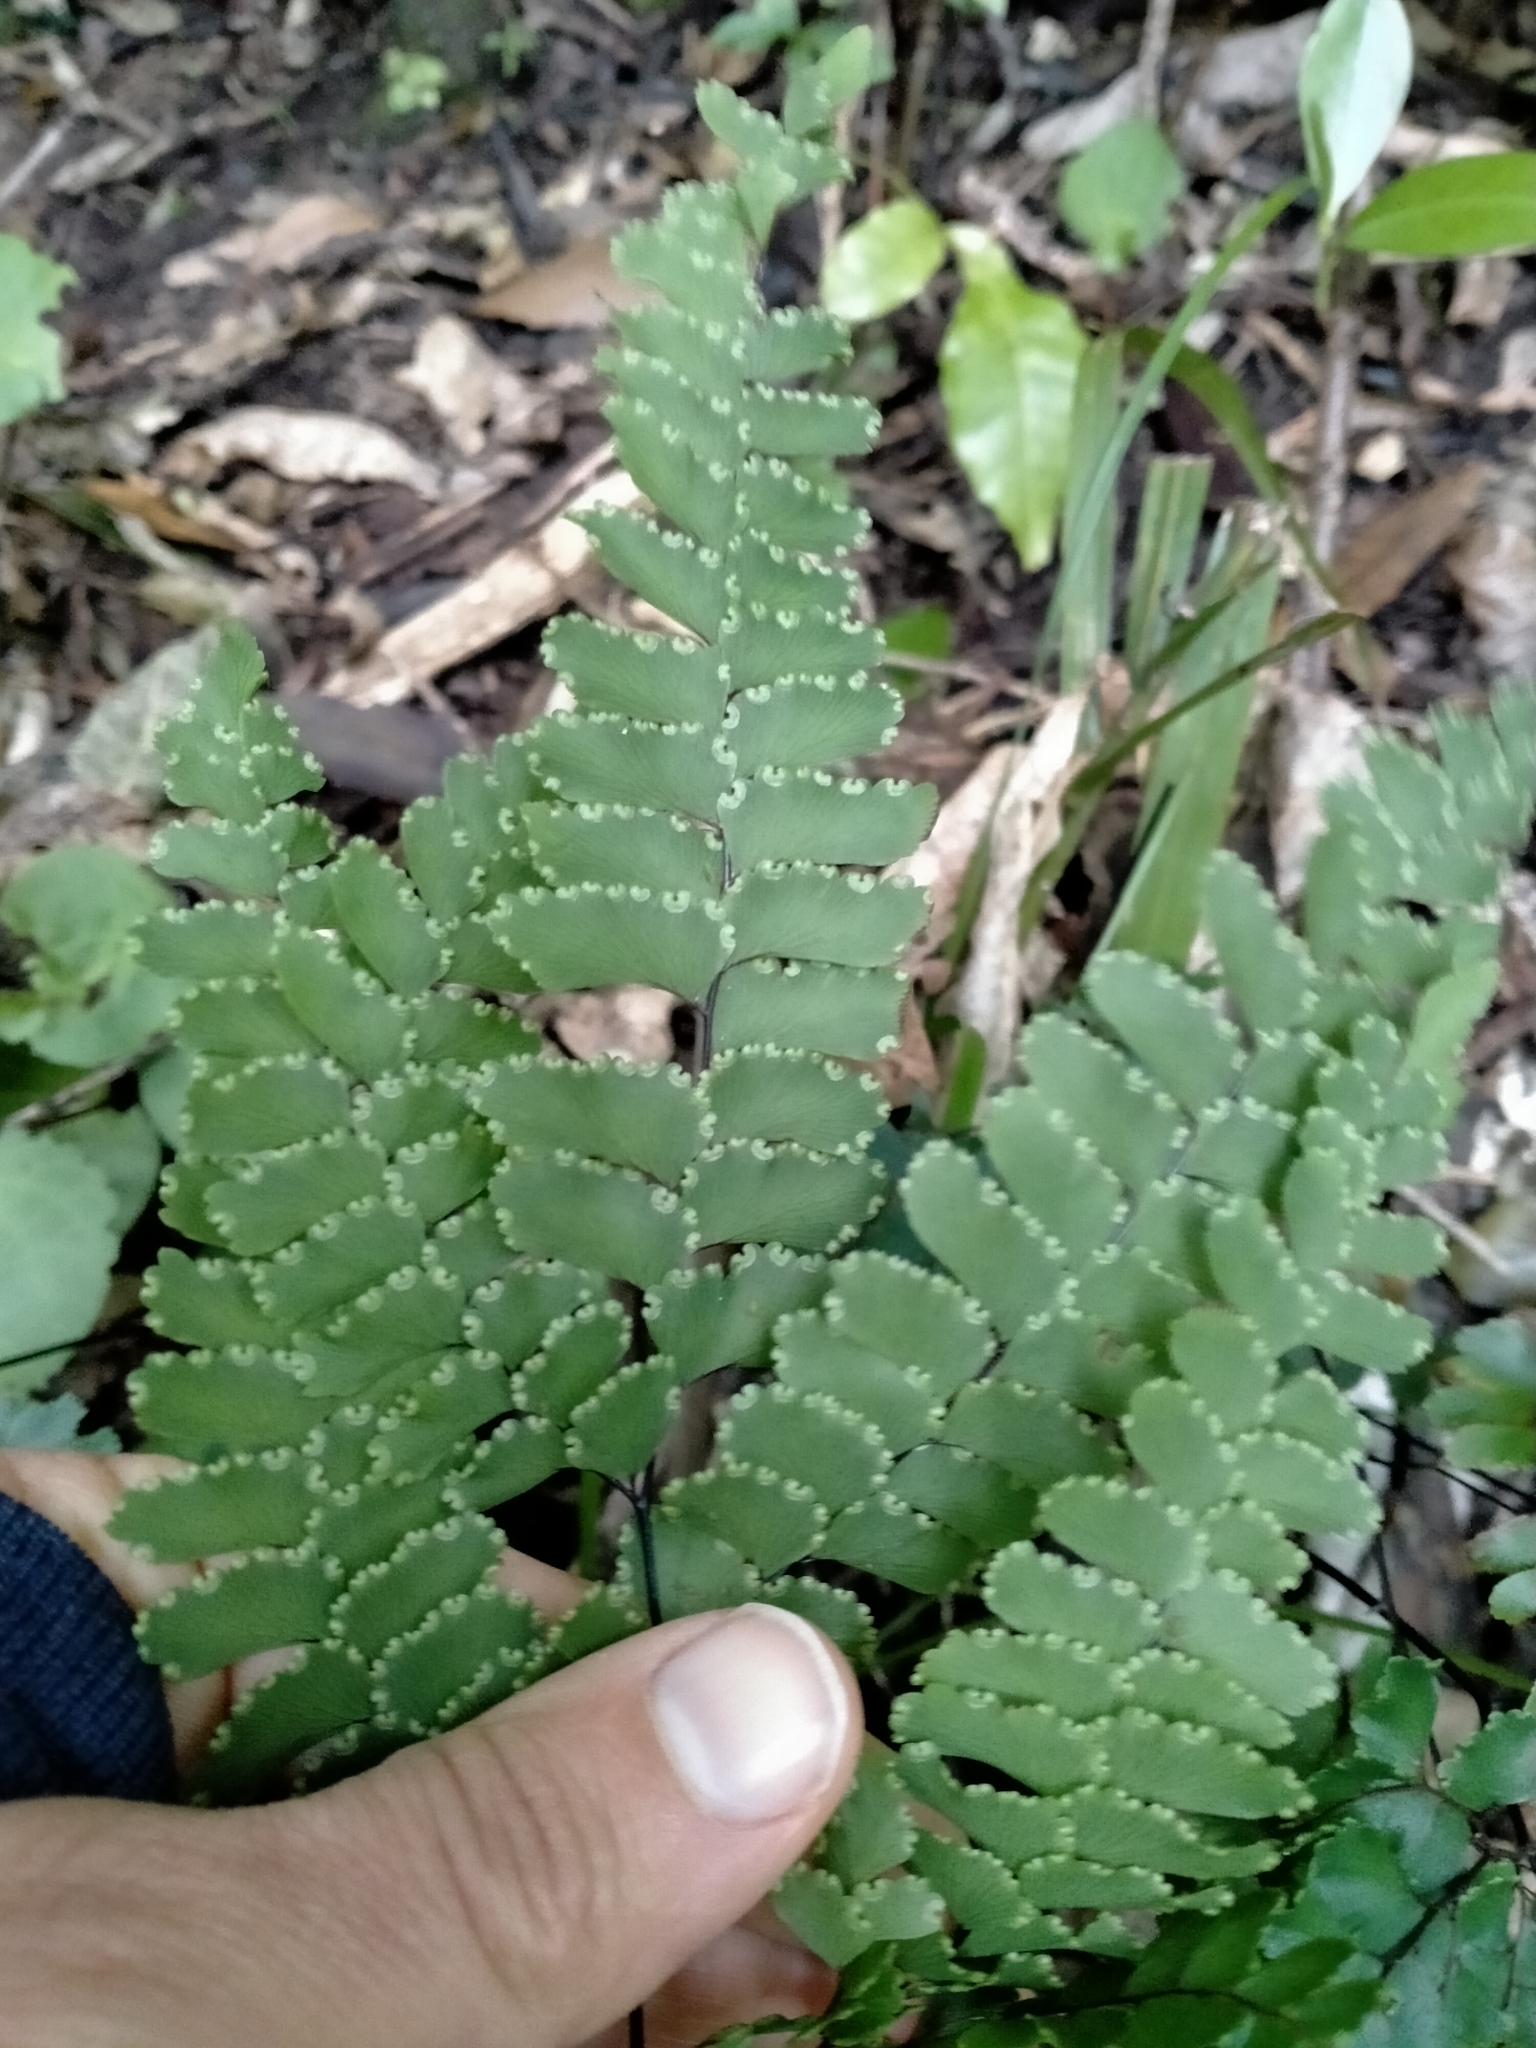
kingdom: Plantae
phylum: Tracheophyta
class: Polypodiopsida
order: Polypodiales
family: Pteridaceae
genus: Adiantum
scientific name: Adiantum cunninghamii
